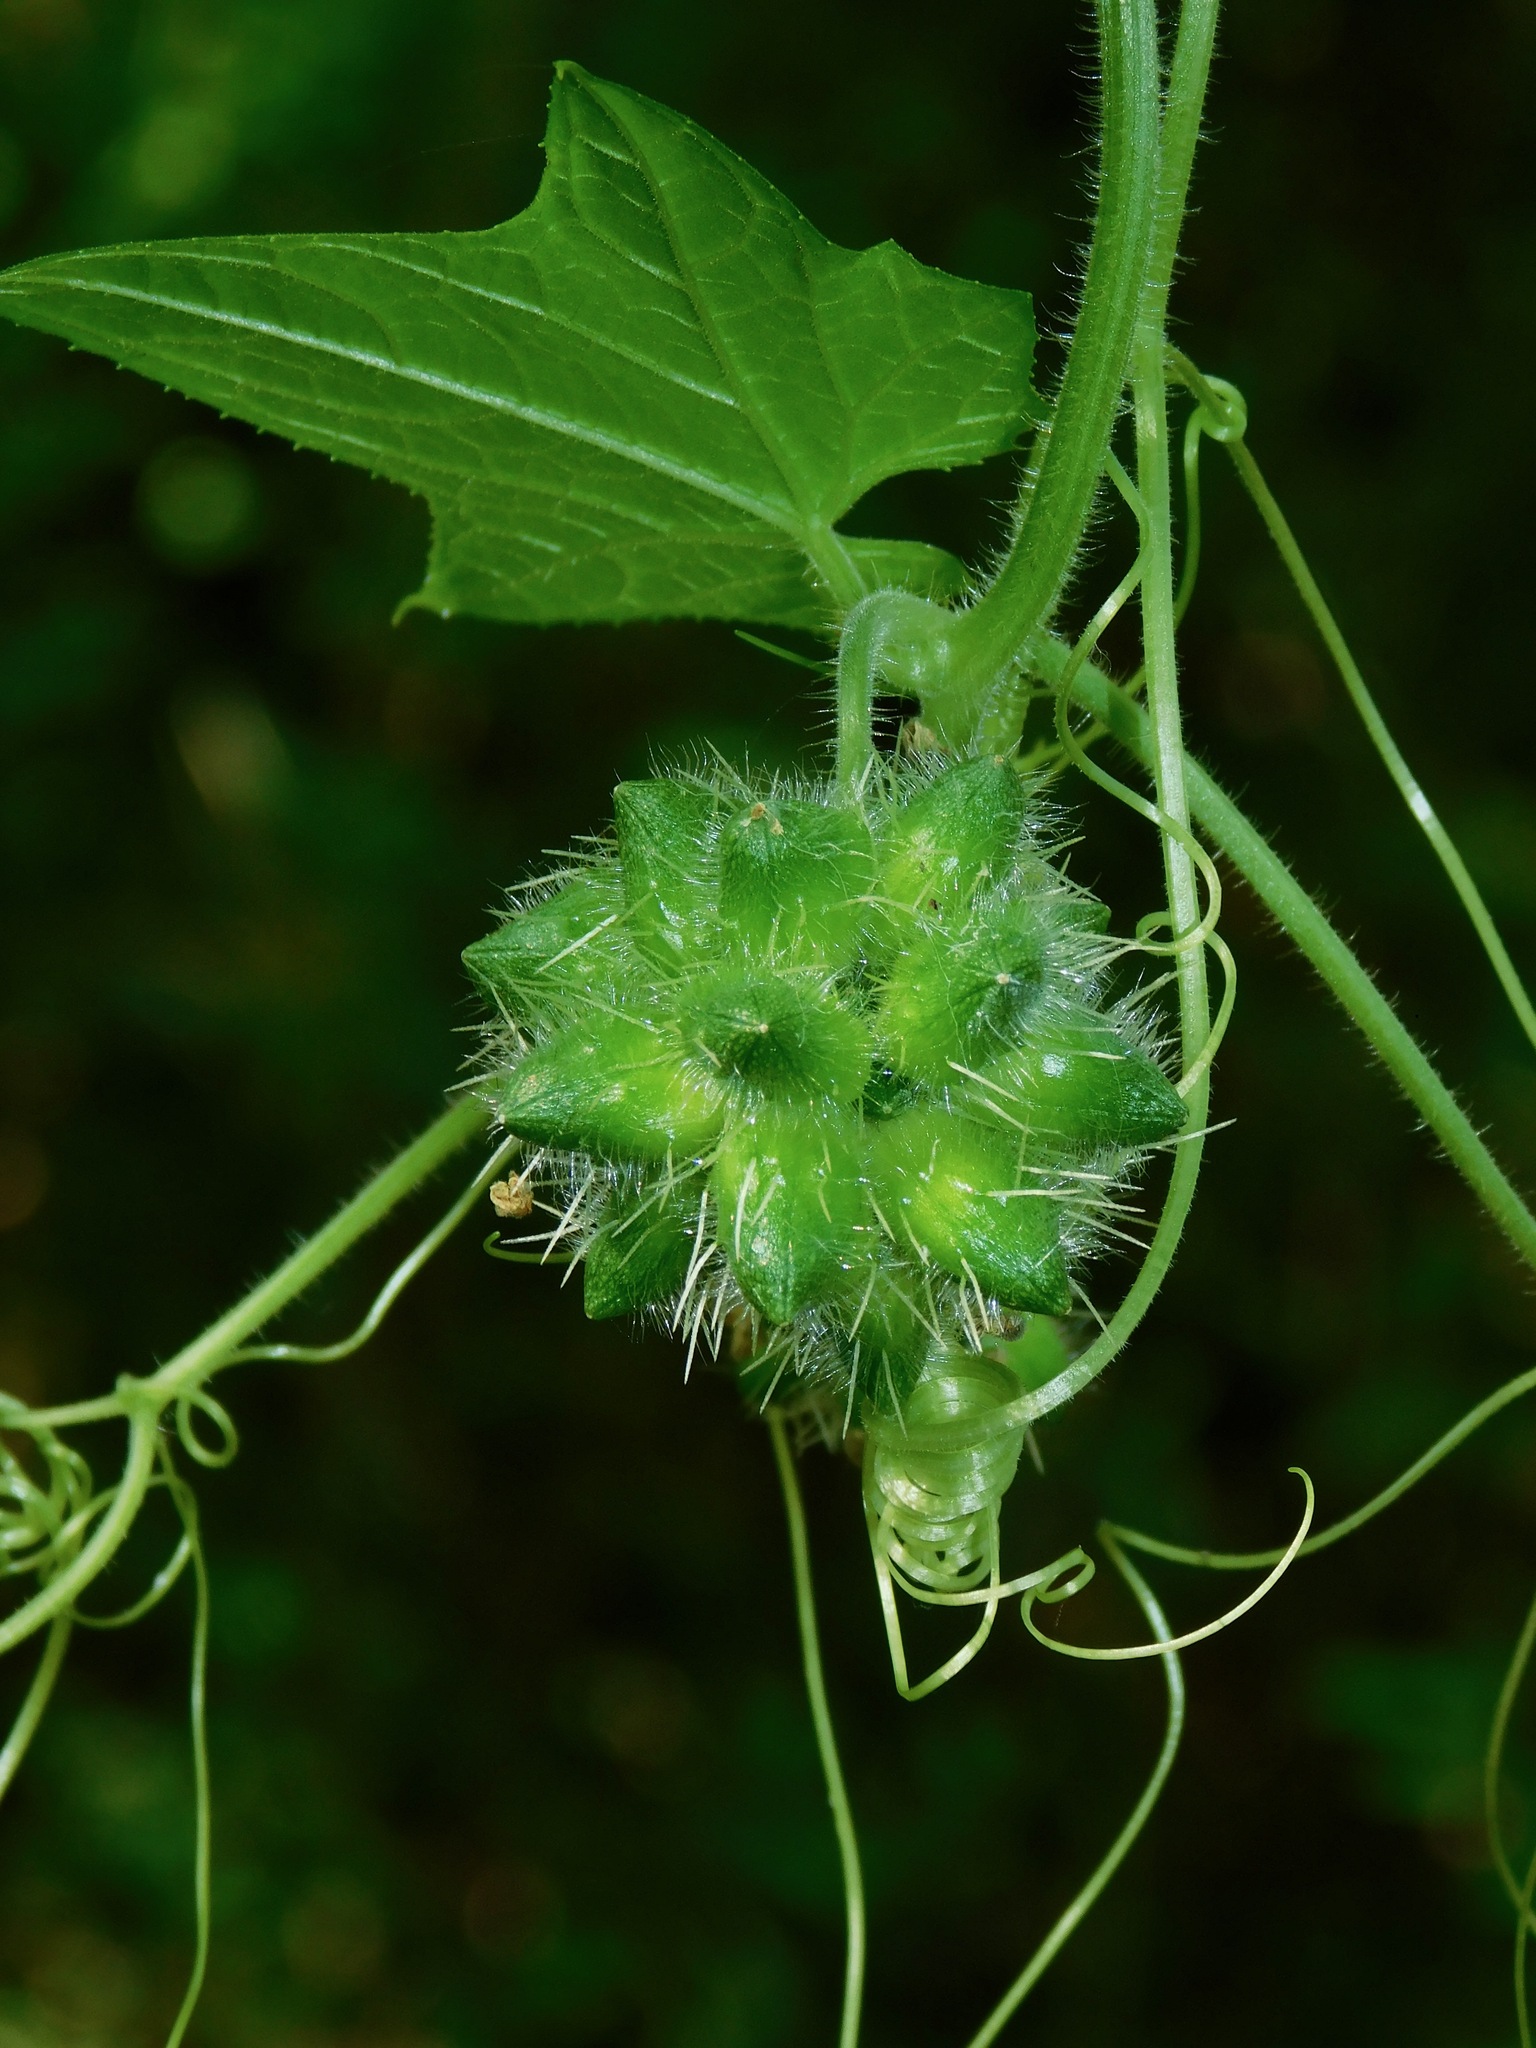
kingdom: Plantae
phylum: Tracheophyta
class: Magnoliopsida
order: Cucurbitales
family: Cucurbitaceae
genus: Sicyos
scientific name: Sicyos angulatus
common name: Angled burr cucumber
